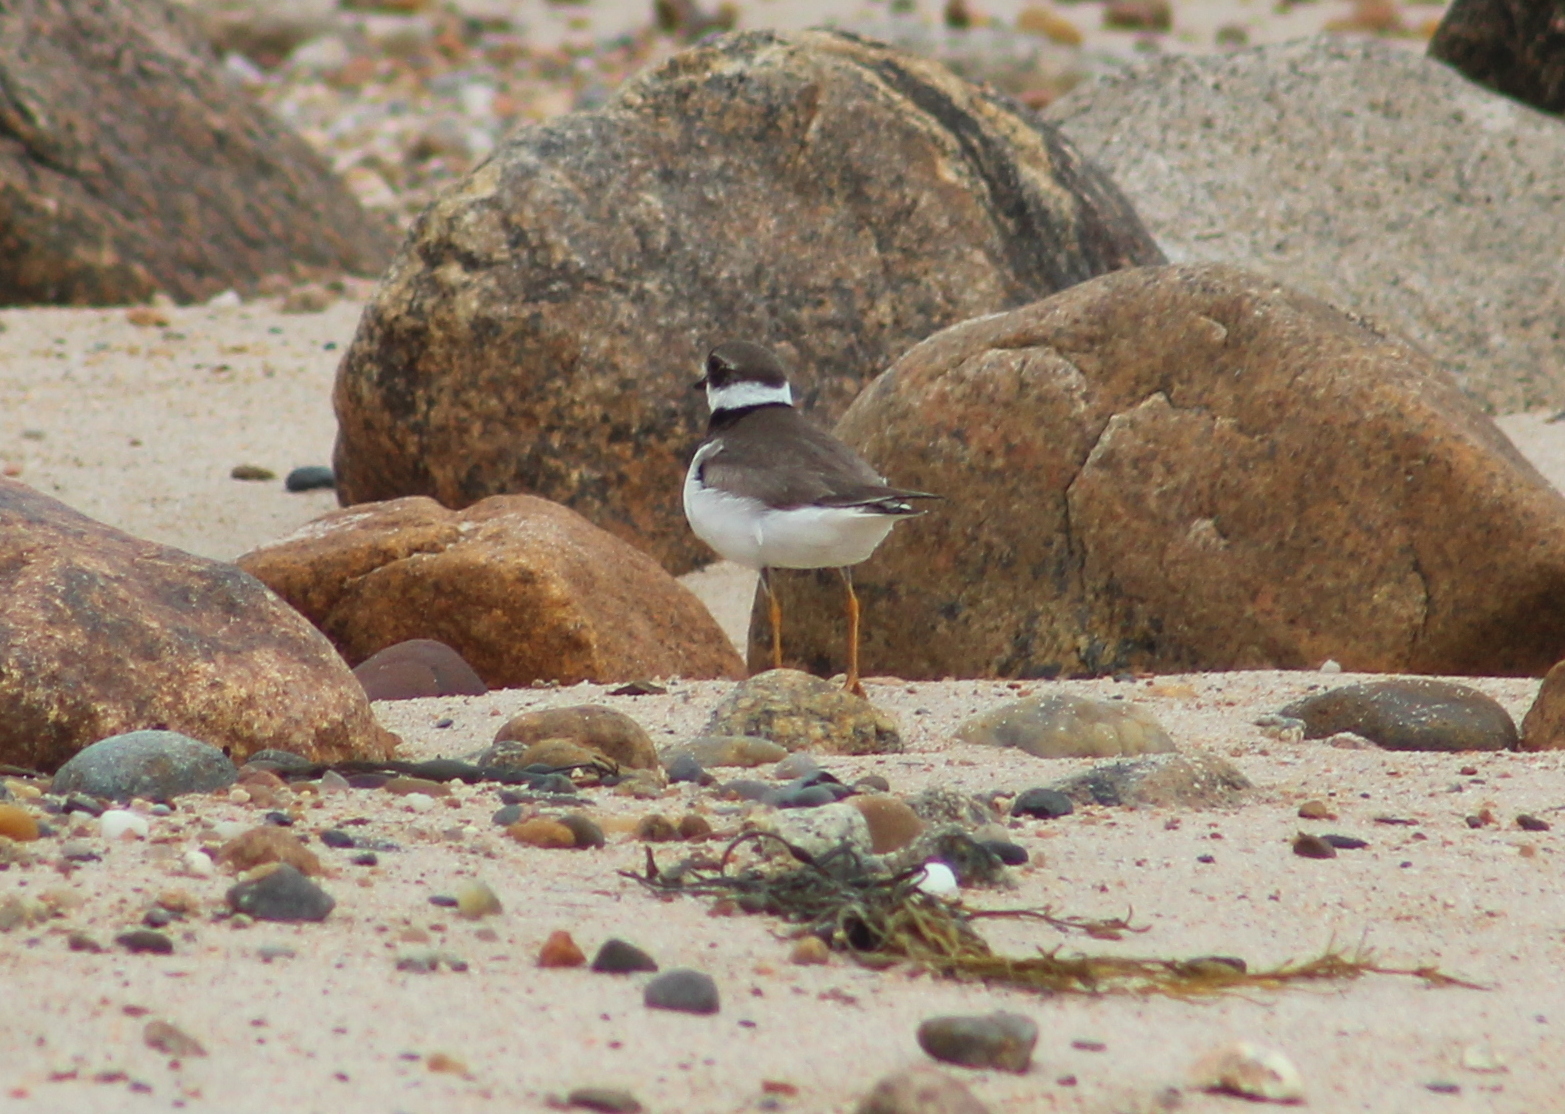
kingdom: Animalia
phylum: Chordata
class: Aves
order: Charadriiformes
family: Charadriidae
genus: Charadrius
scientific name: Charadrius semipalmatus
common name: Semipalmated plover
